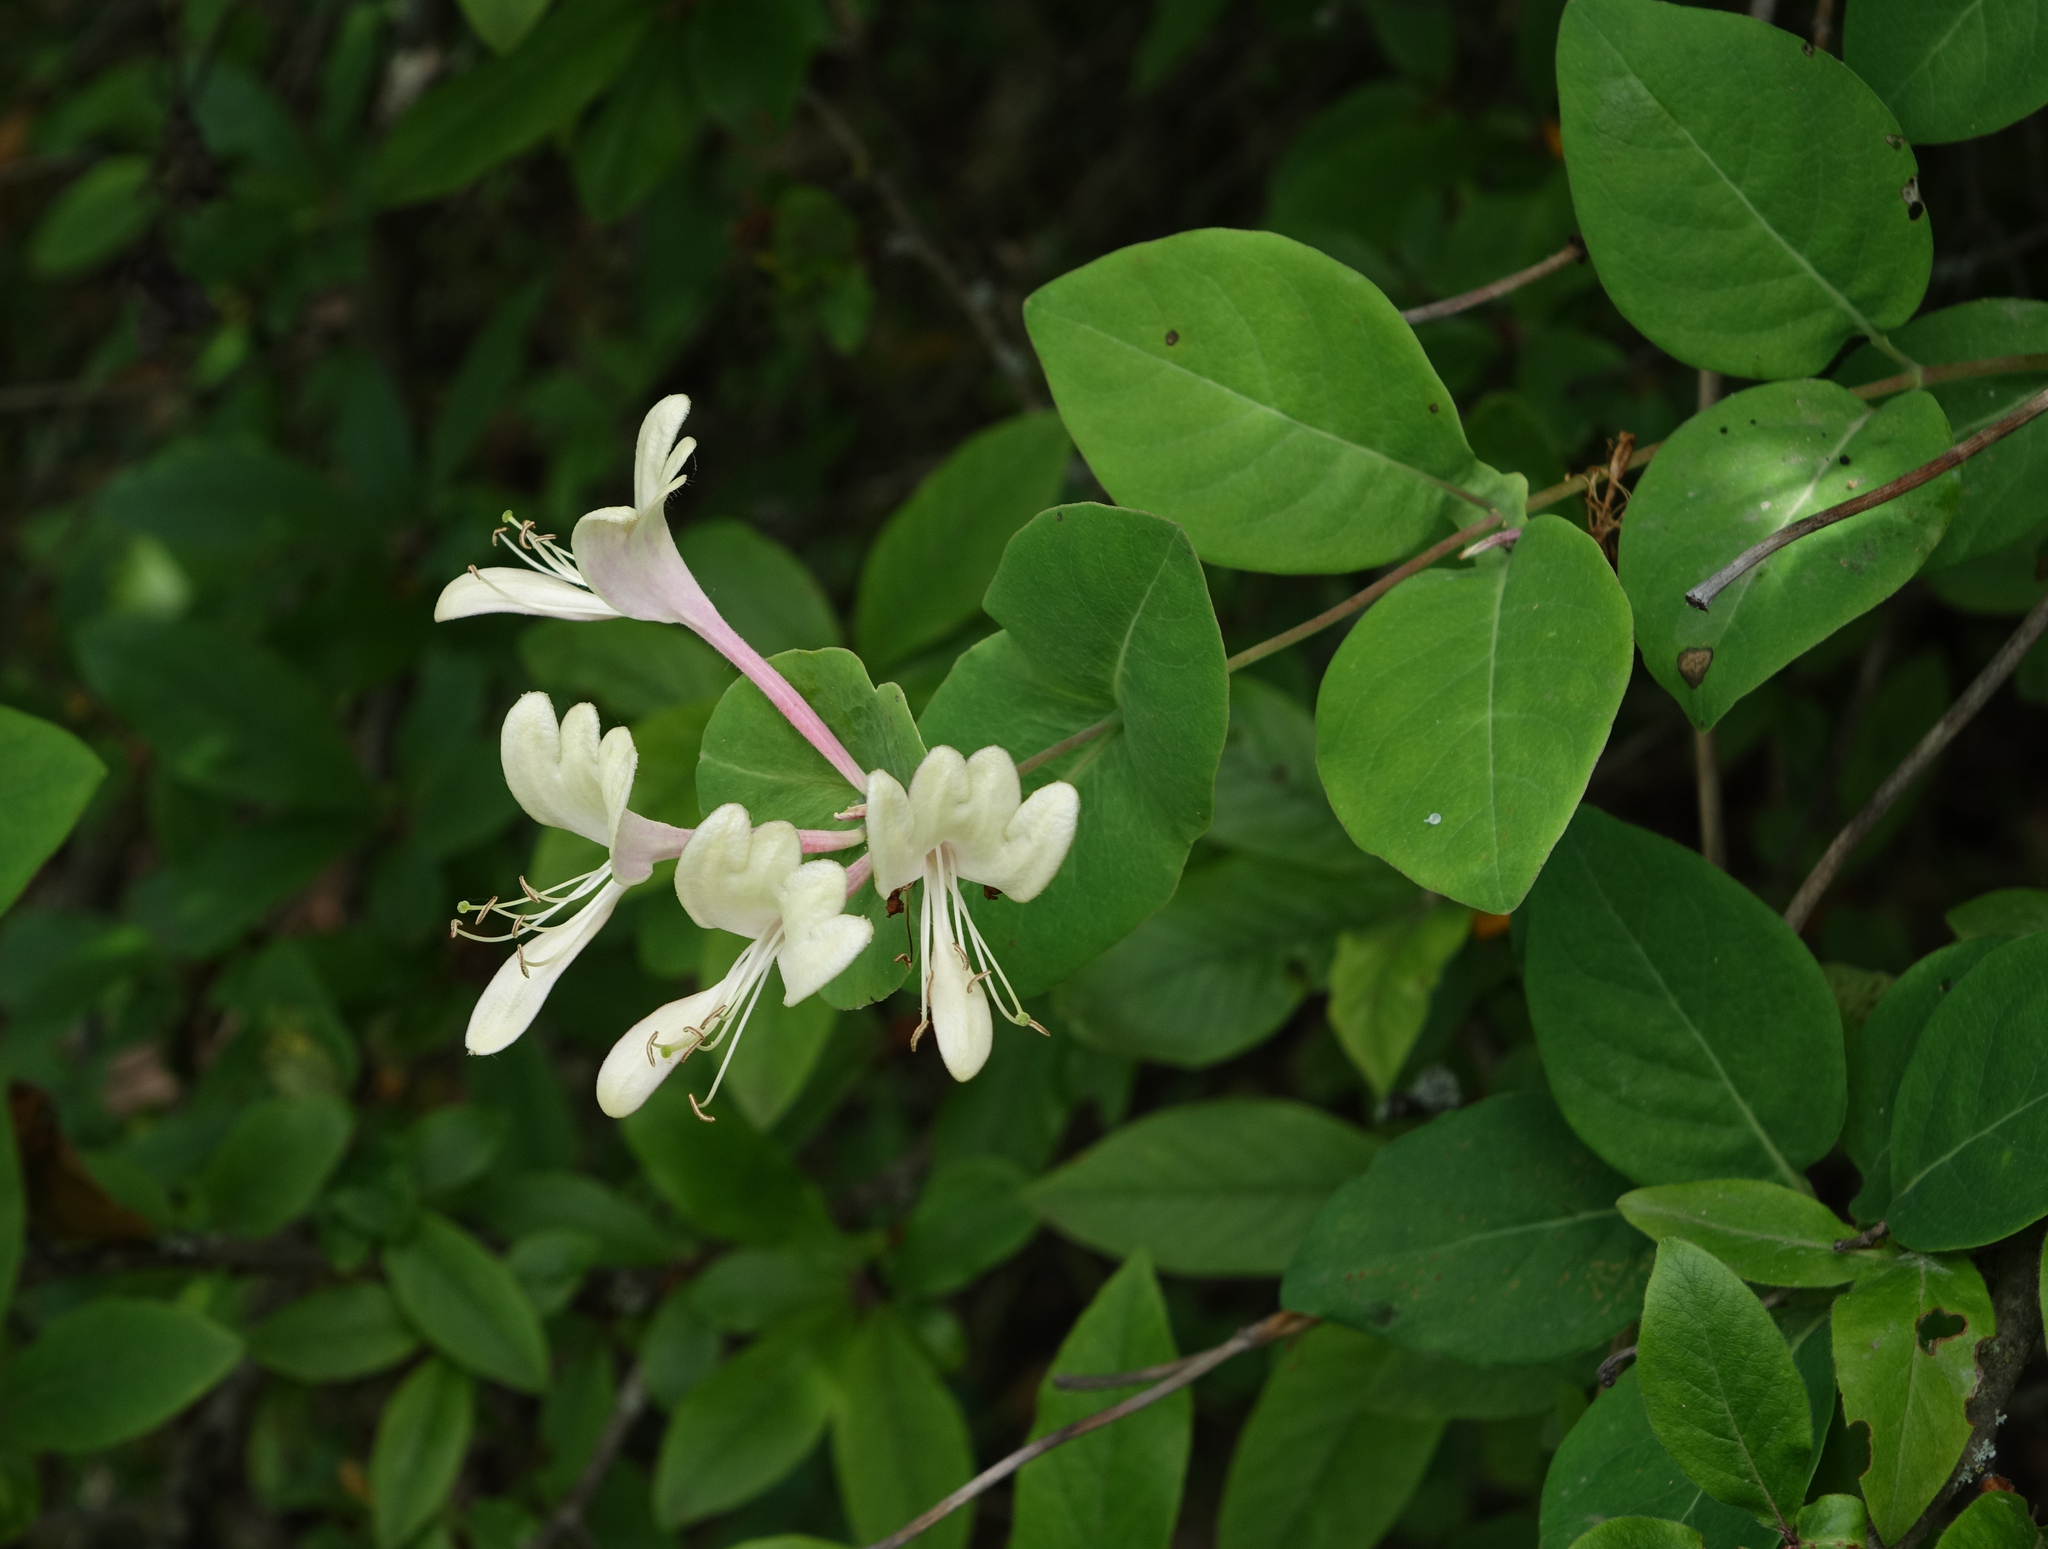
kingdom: Plantae
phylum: Tracheophyta
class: Magnoliopsida
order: Dipsacales
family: Caprifoliaceae
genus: Lonicera
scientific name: Lonicera caprifolium
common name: Perfoliate honeysuckle
